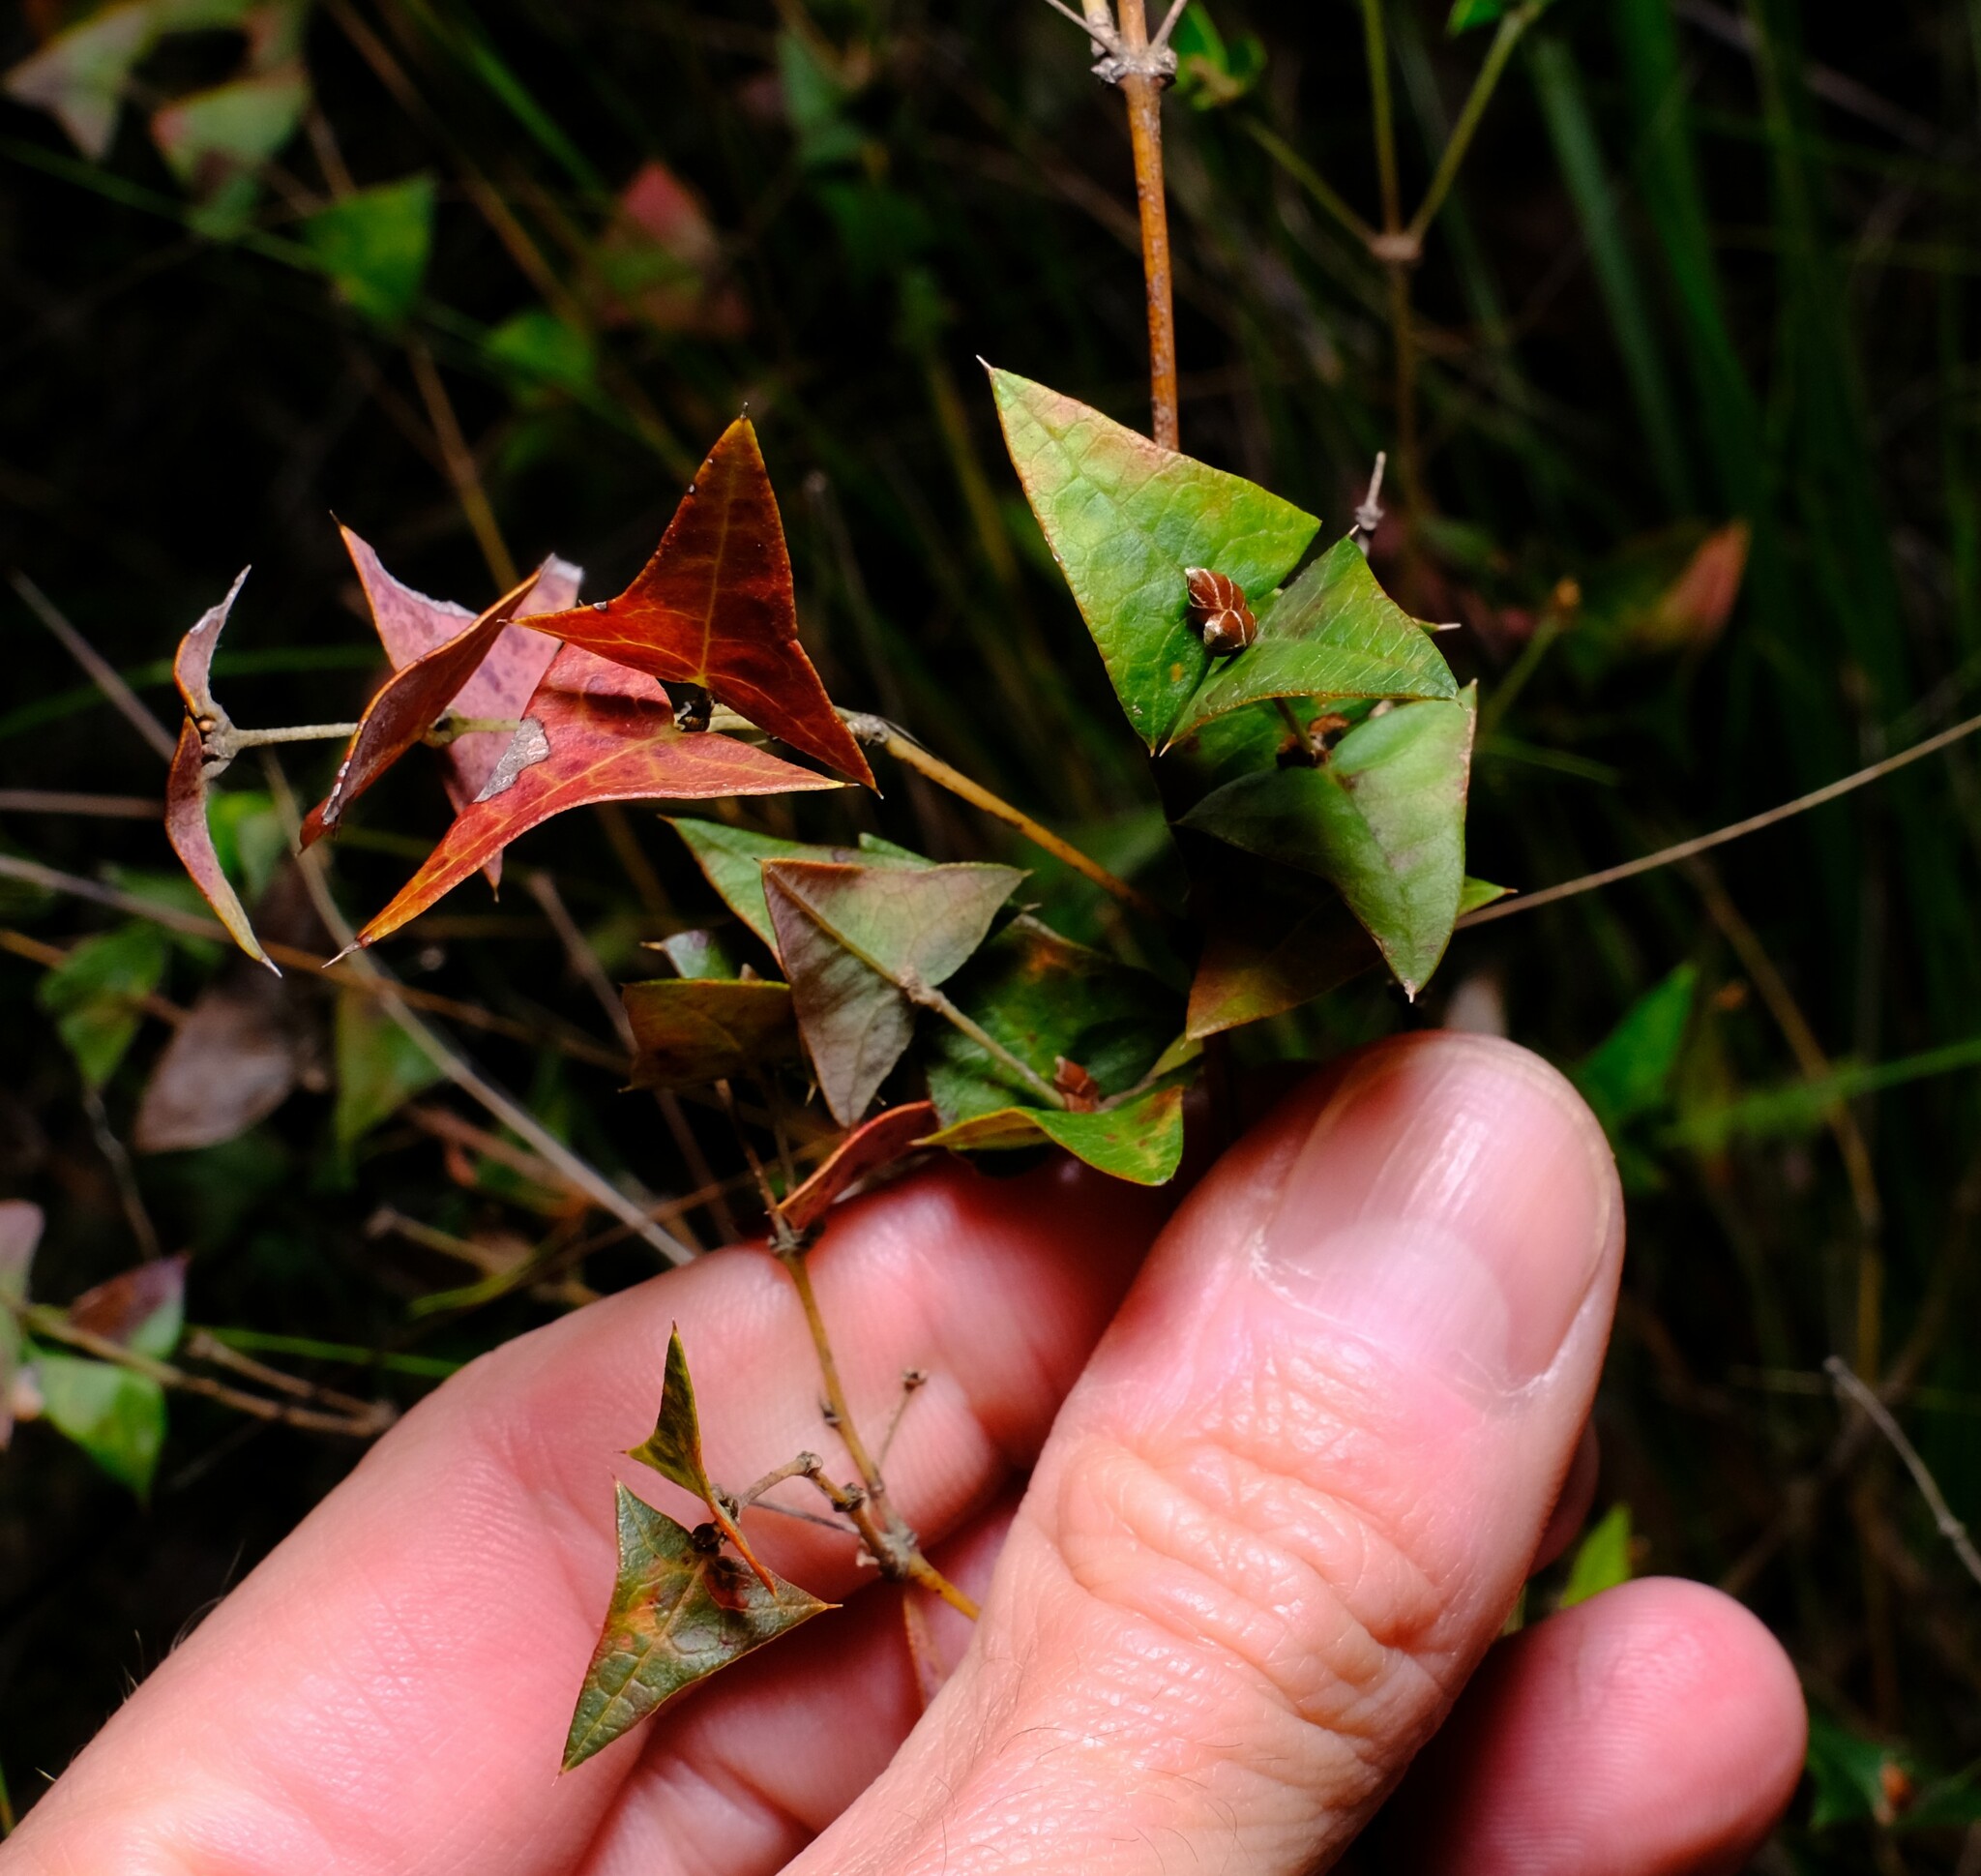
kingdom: Plantae
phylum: Tracheophyta
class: Magnoliopsida
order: Fabales
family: Fabaceae
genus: Platylobium
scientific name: Platylobium obtusangulum
